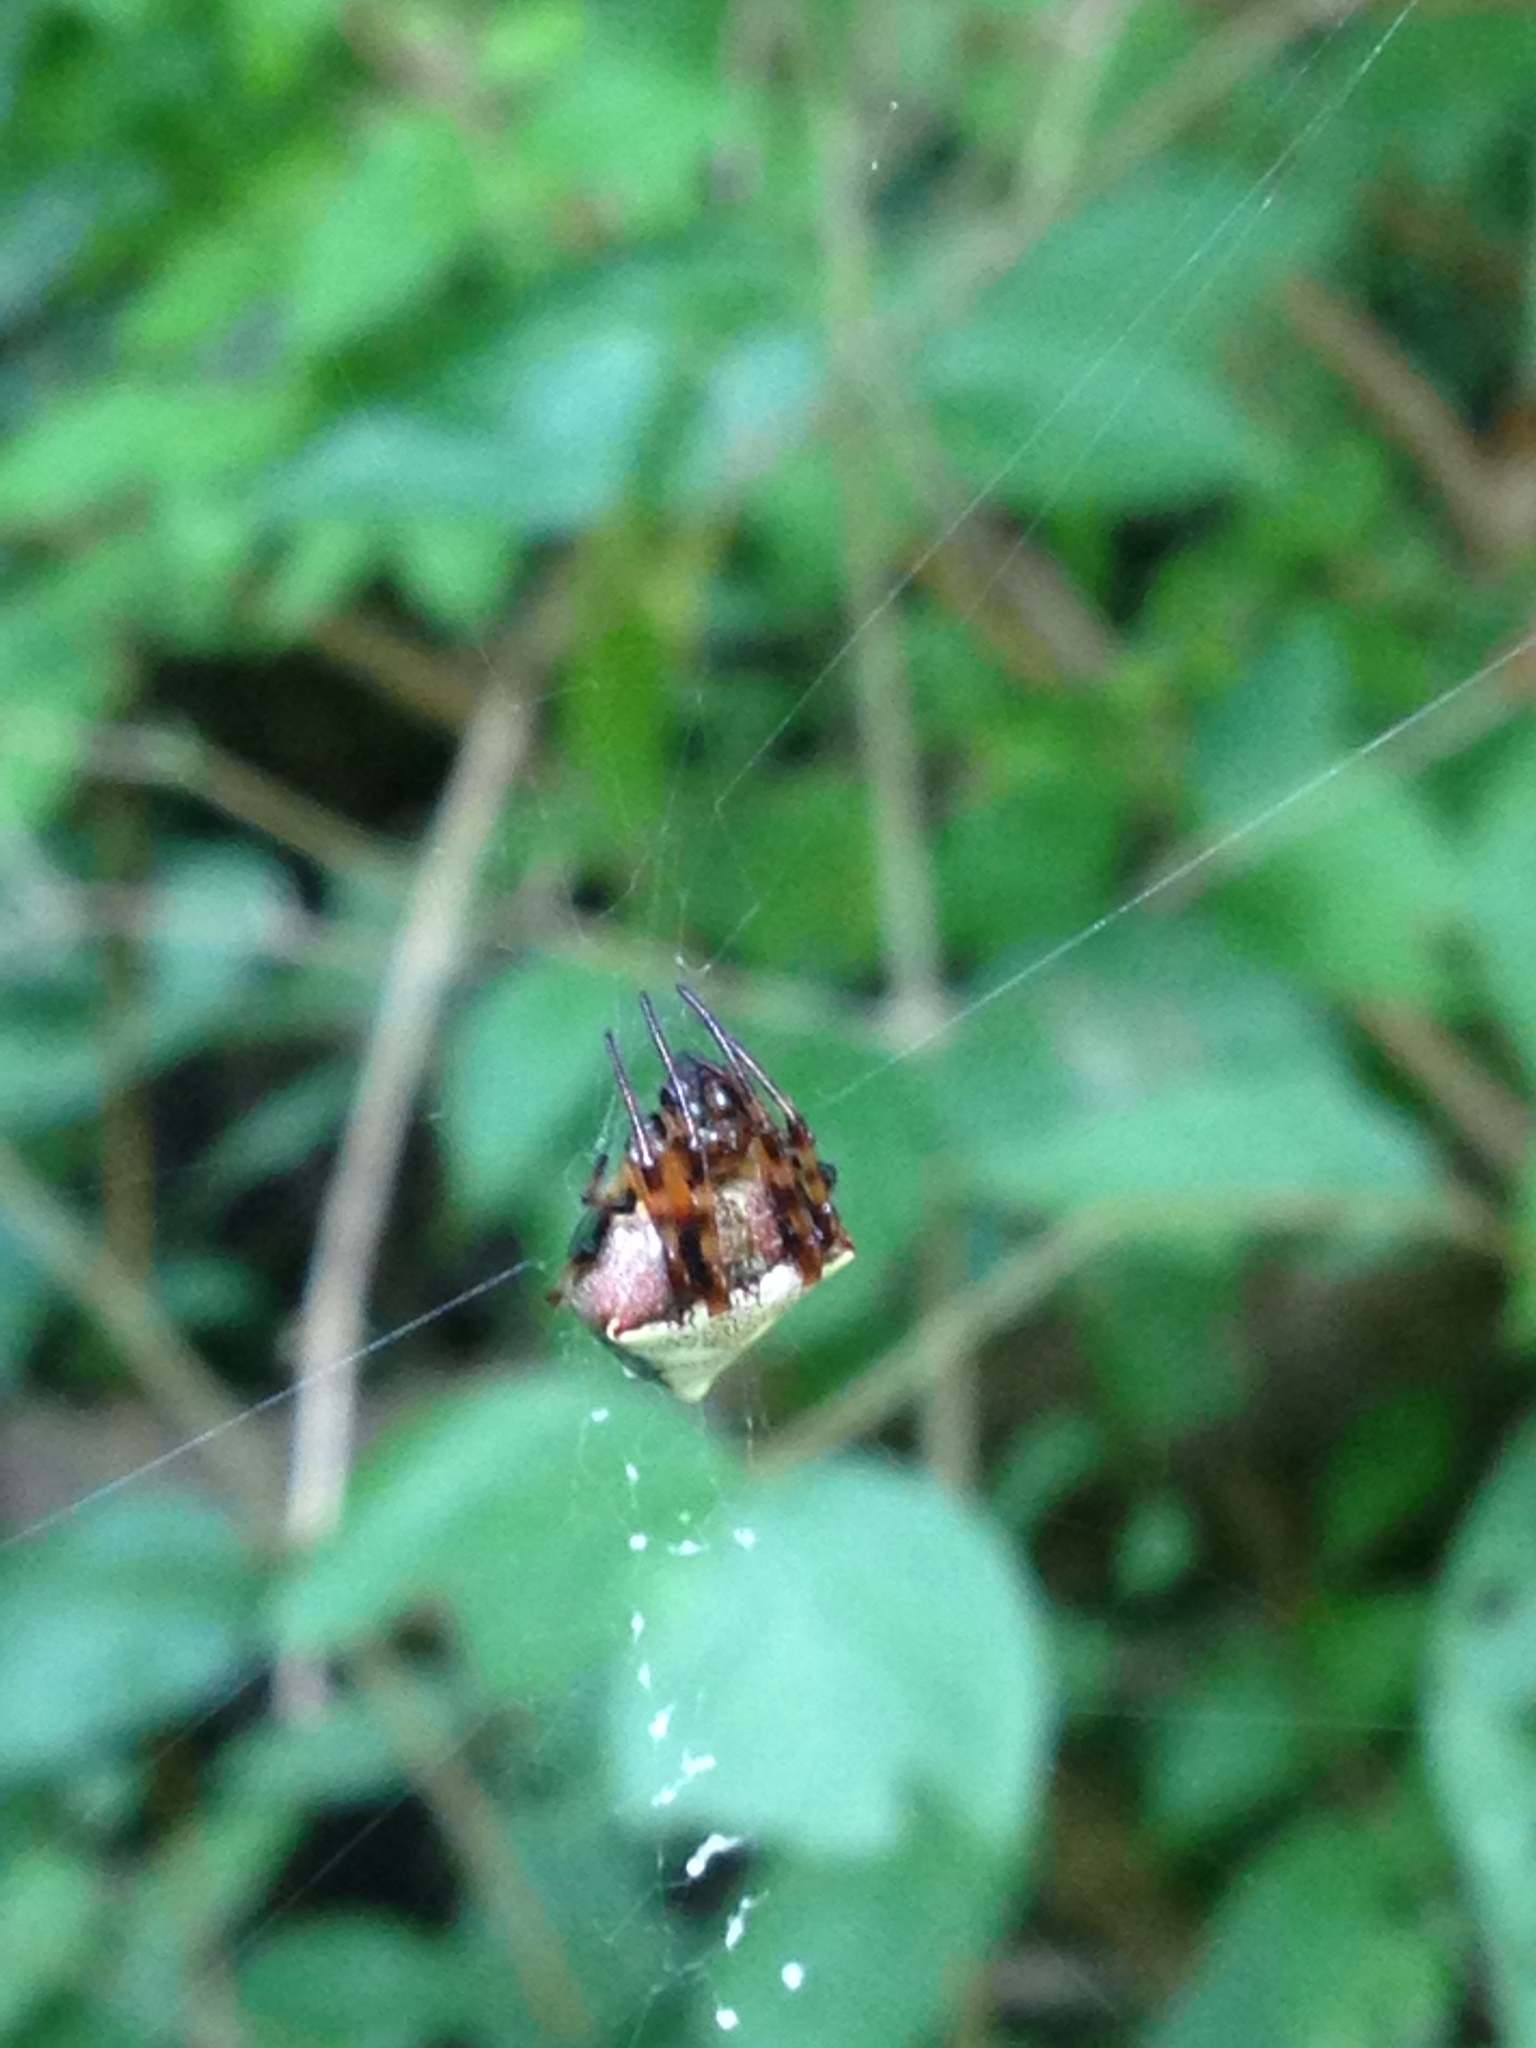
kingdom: Animalia
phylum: Arthropoda
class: Arachnida
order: Araneae
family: Araneidae
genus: Verrucosa
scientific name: Verrucosa arenata
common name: Orb weavers
